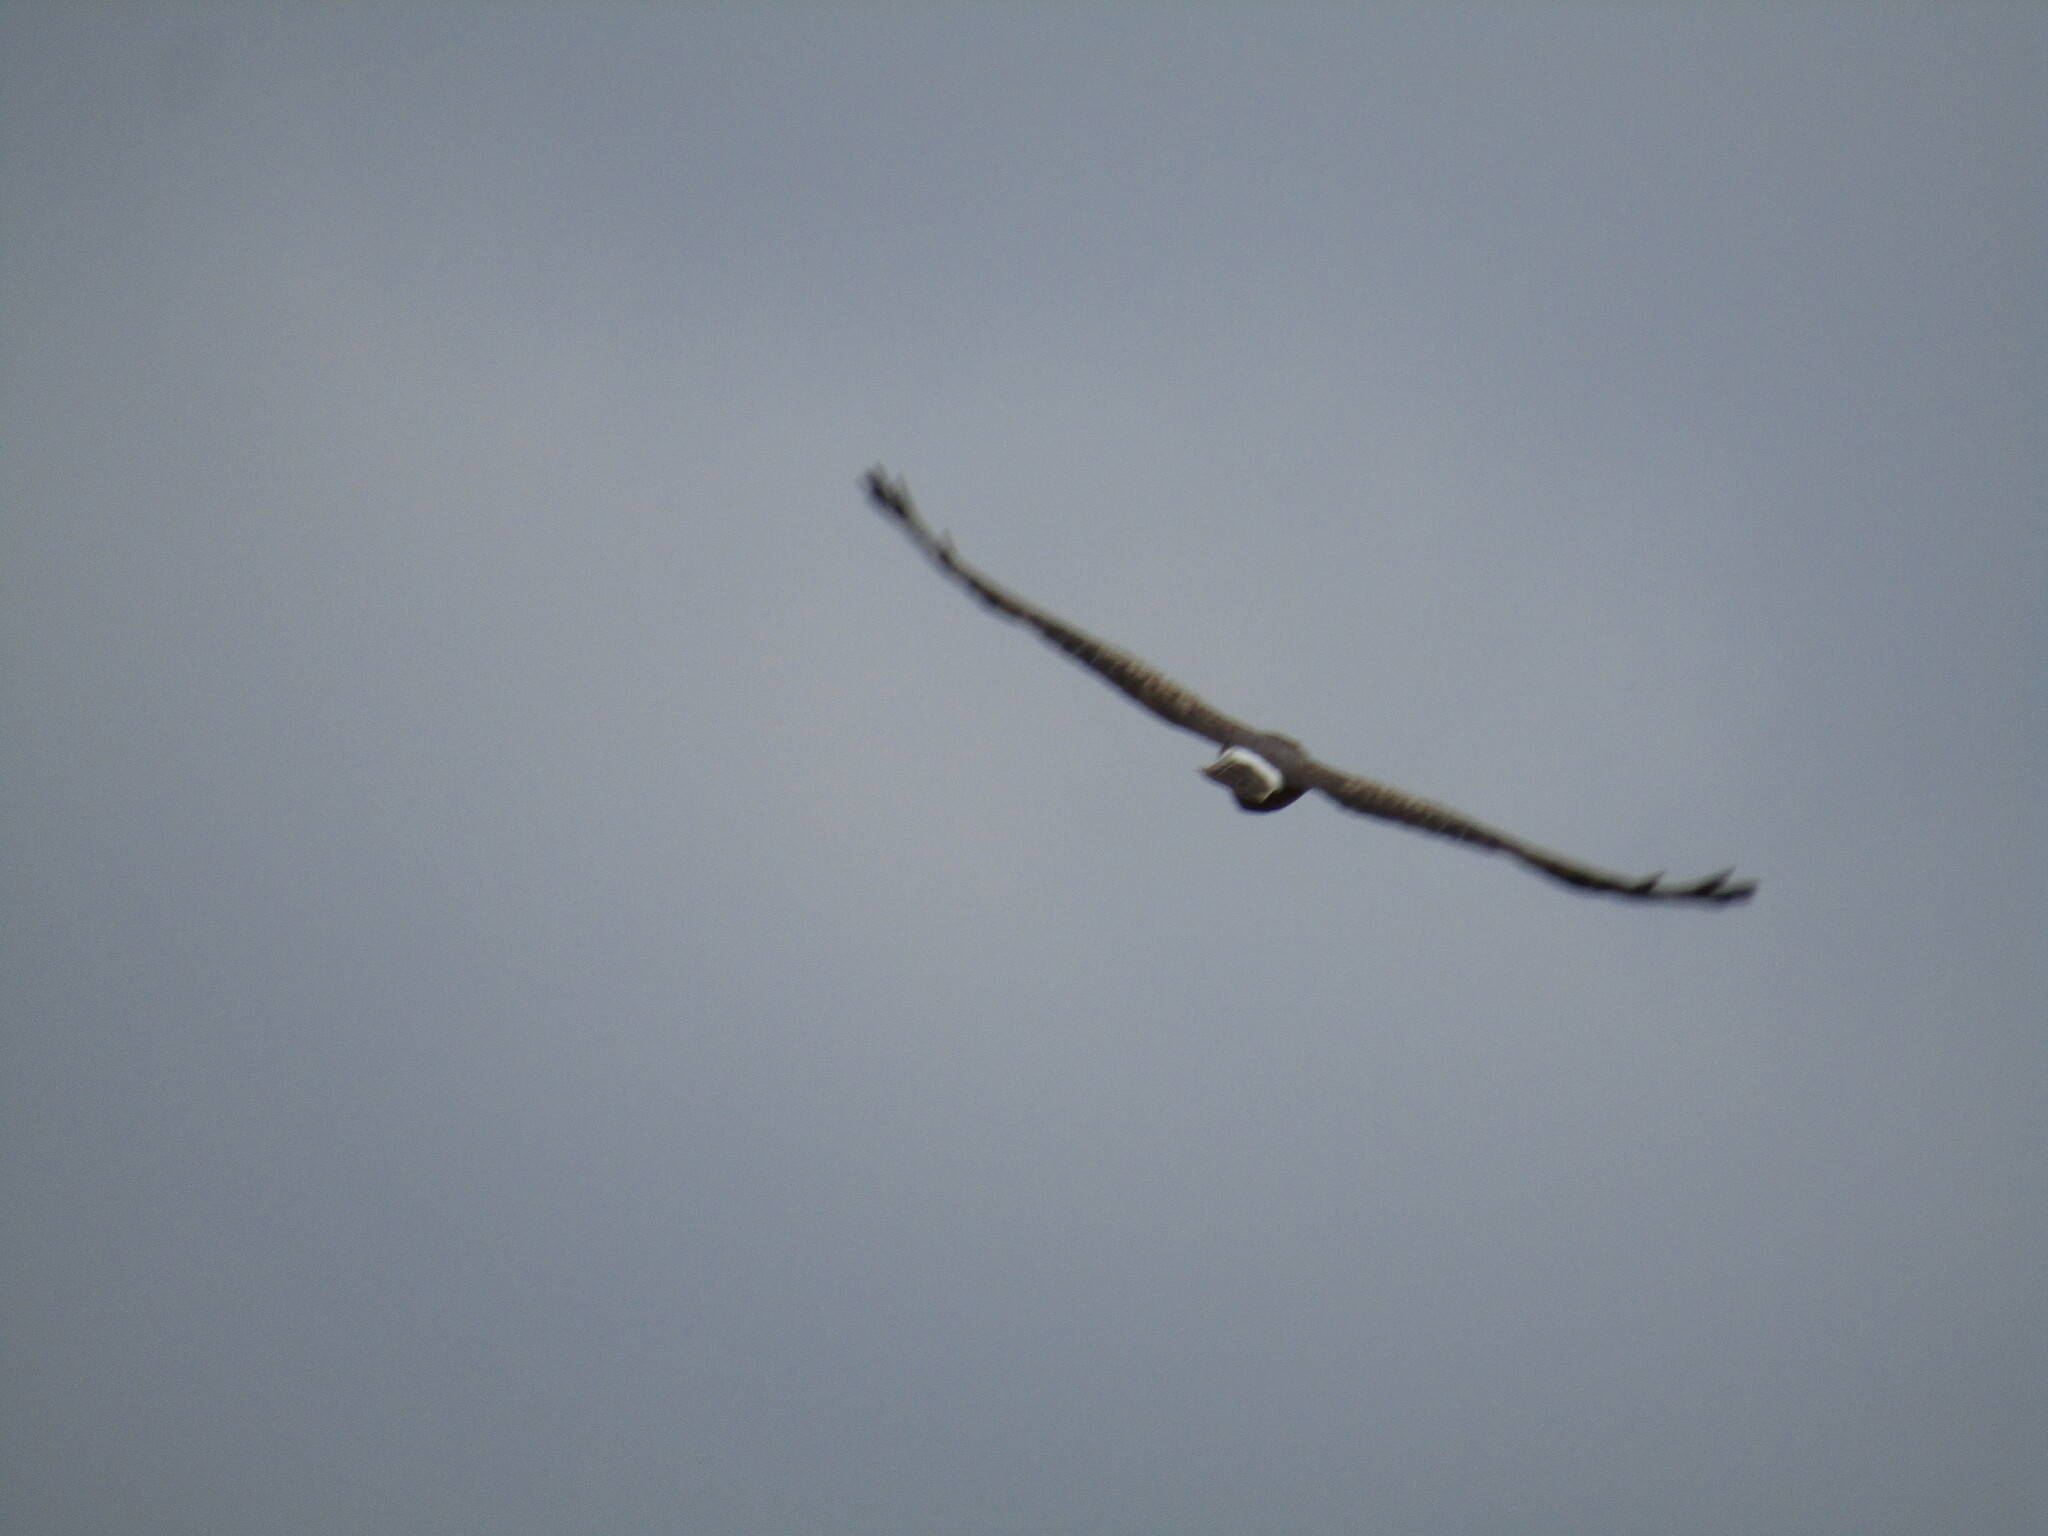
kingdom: Animalia
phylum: Chordata
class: Aves
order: Accipitriformes
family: Accipitridae
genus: Circus
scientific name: Circus cyaneus
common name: Hen harrier
